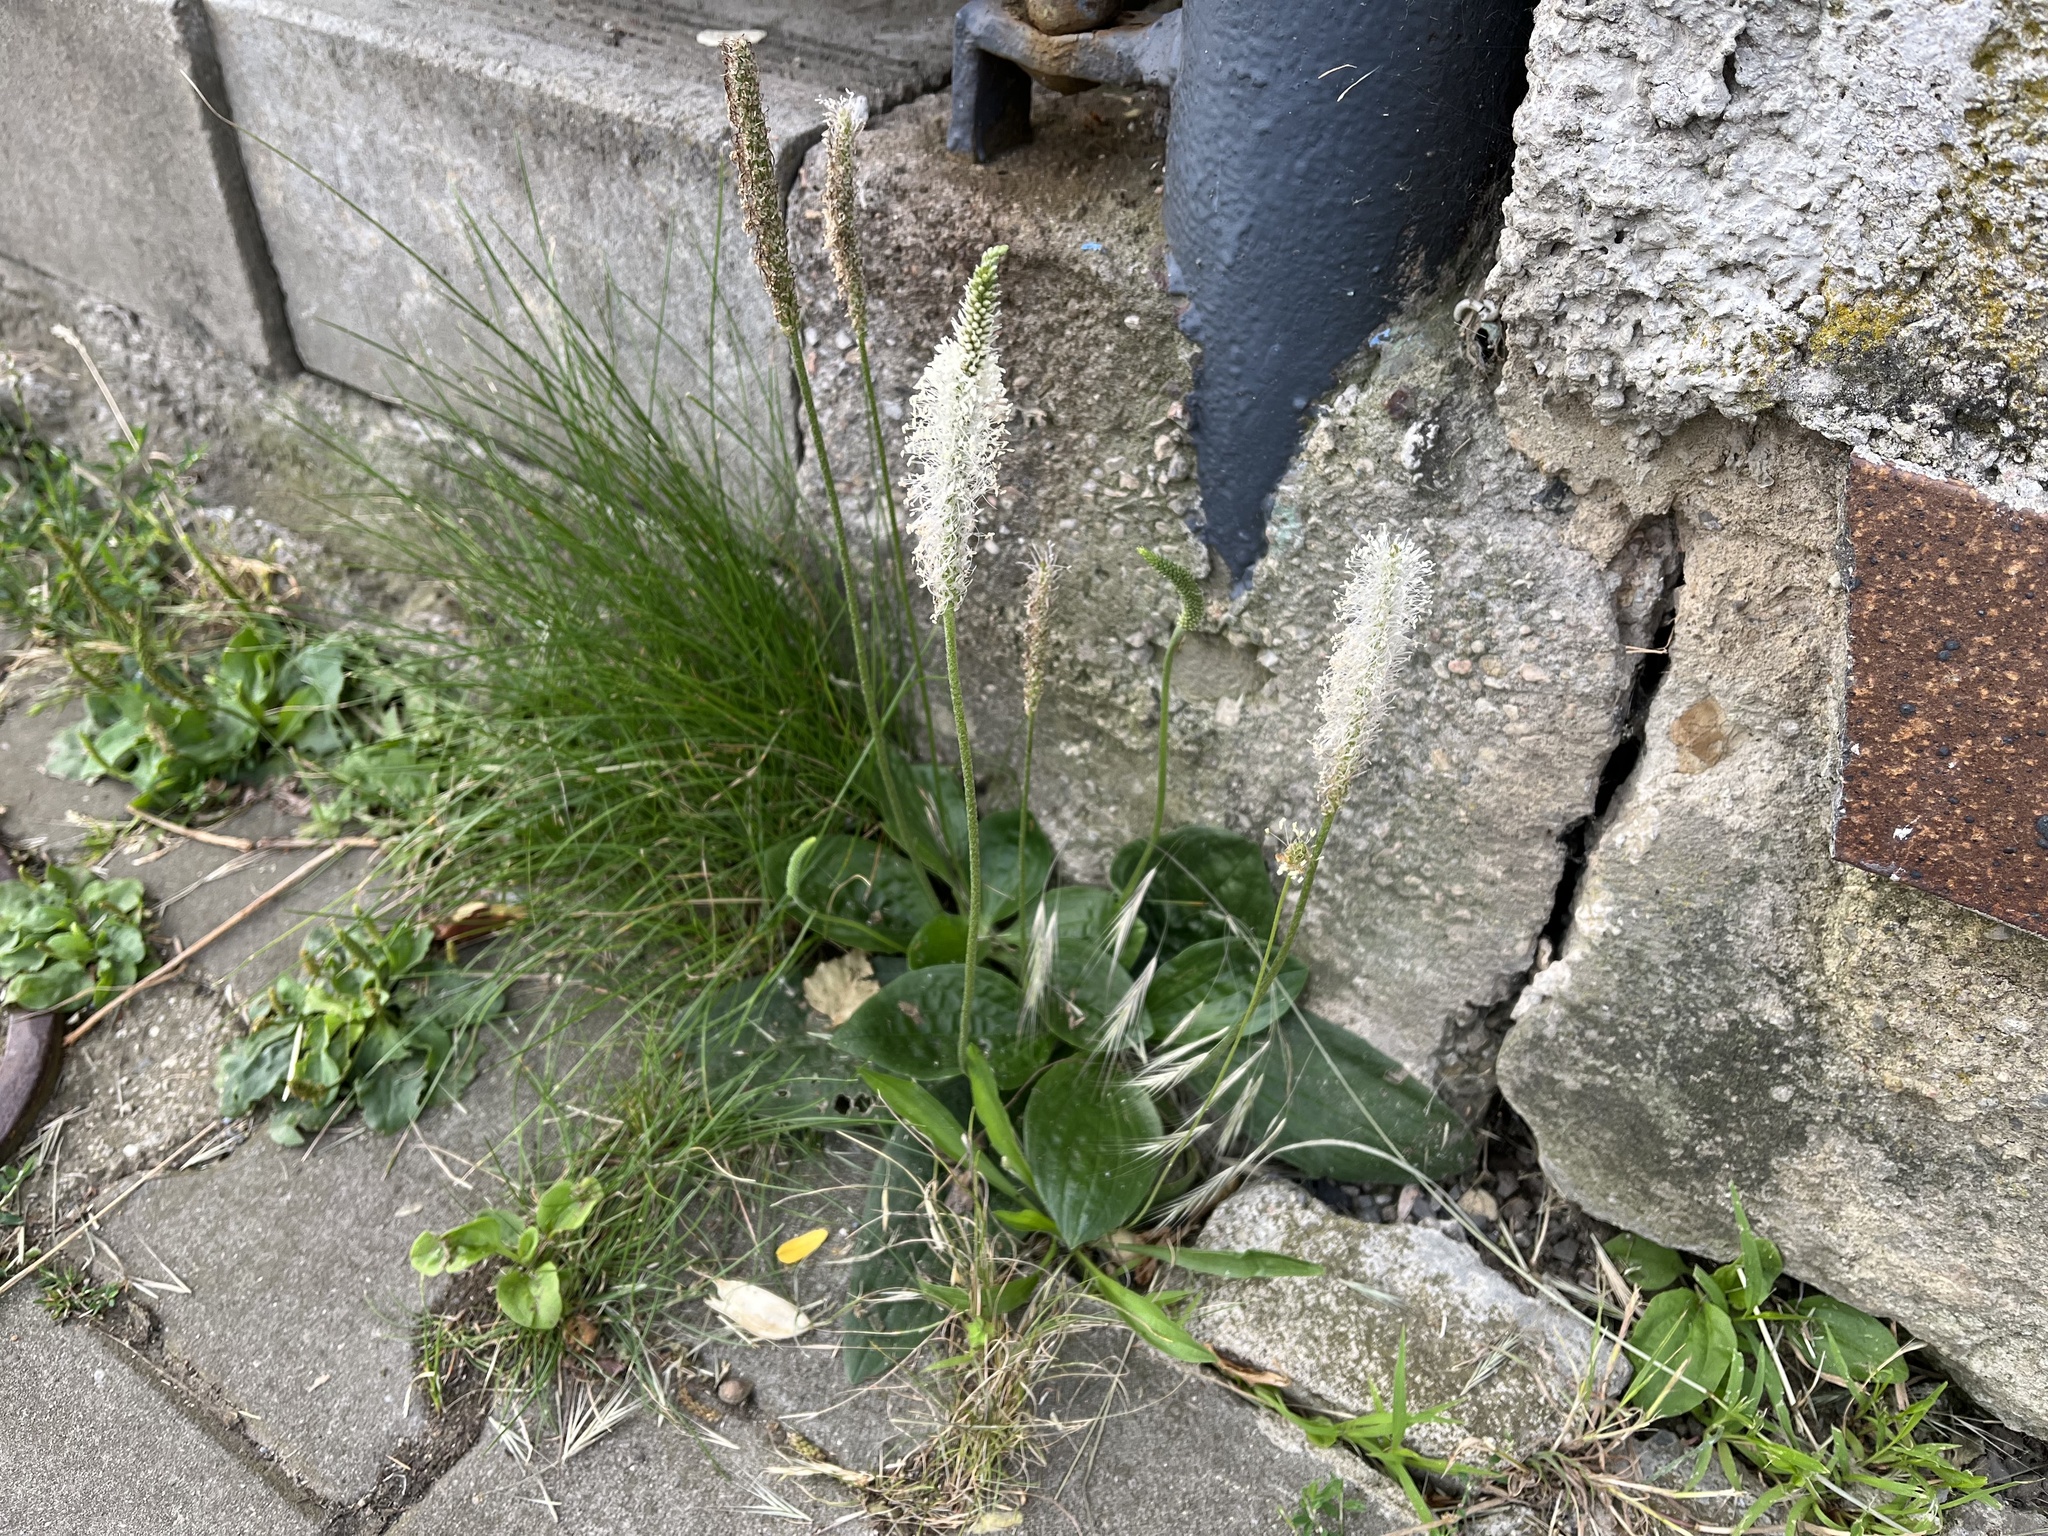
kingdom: Plantae
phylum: Tracheophyta
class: Magnoliopsida
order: Lamiales
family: Plantaginaceae
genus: Plantago
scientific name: Plantago media
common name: Hoary plantain
